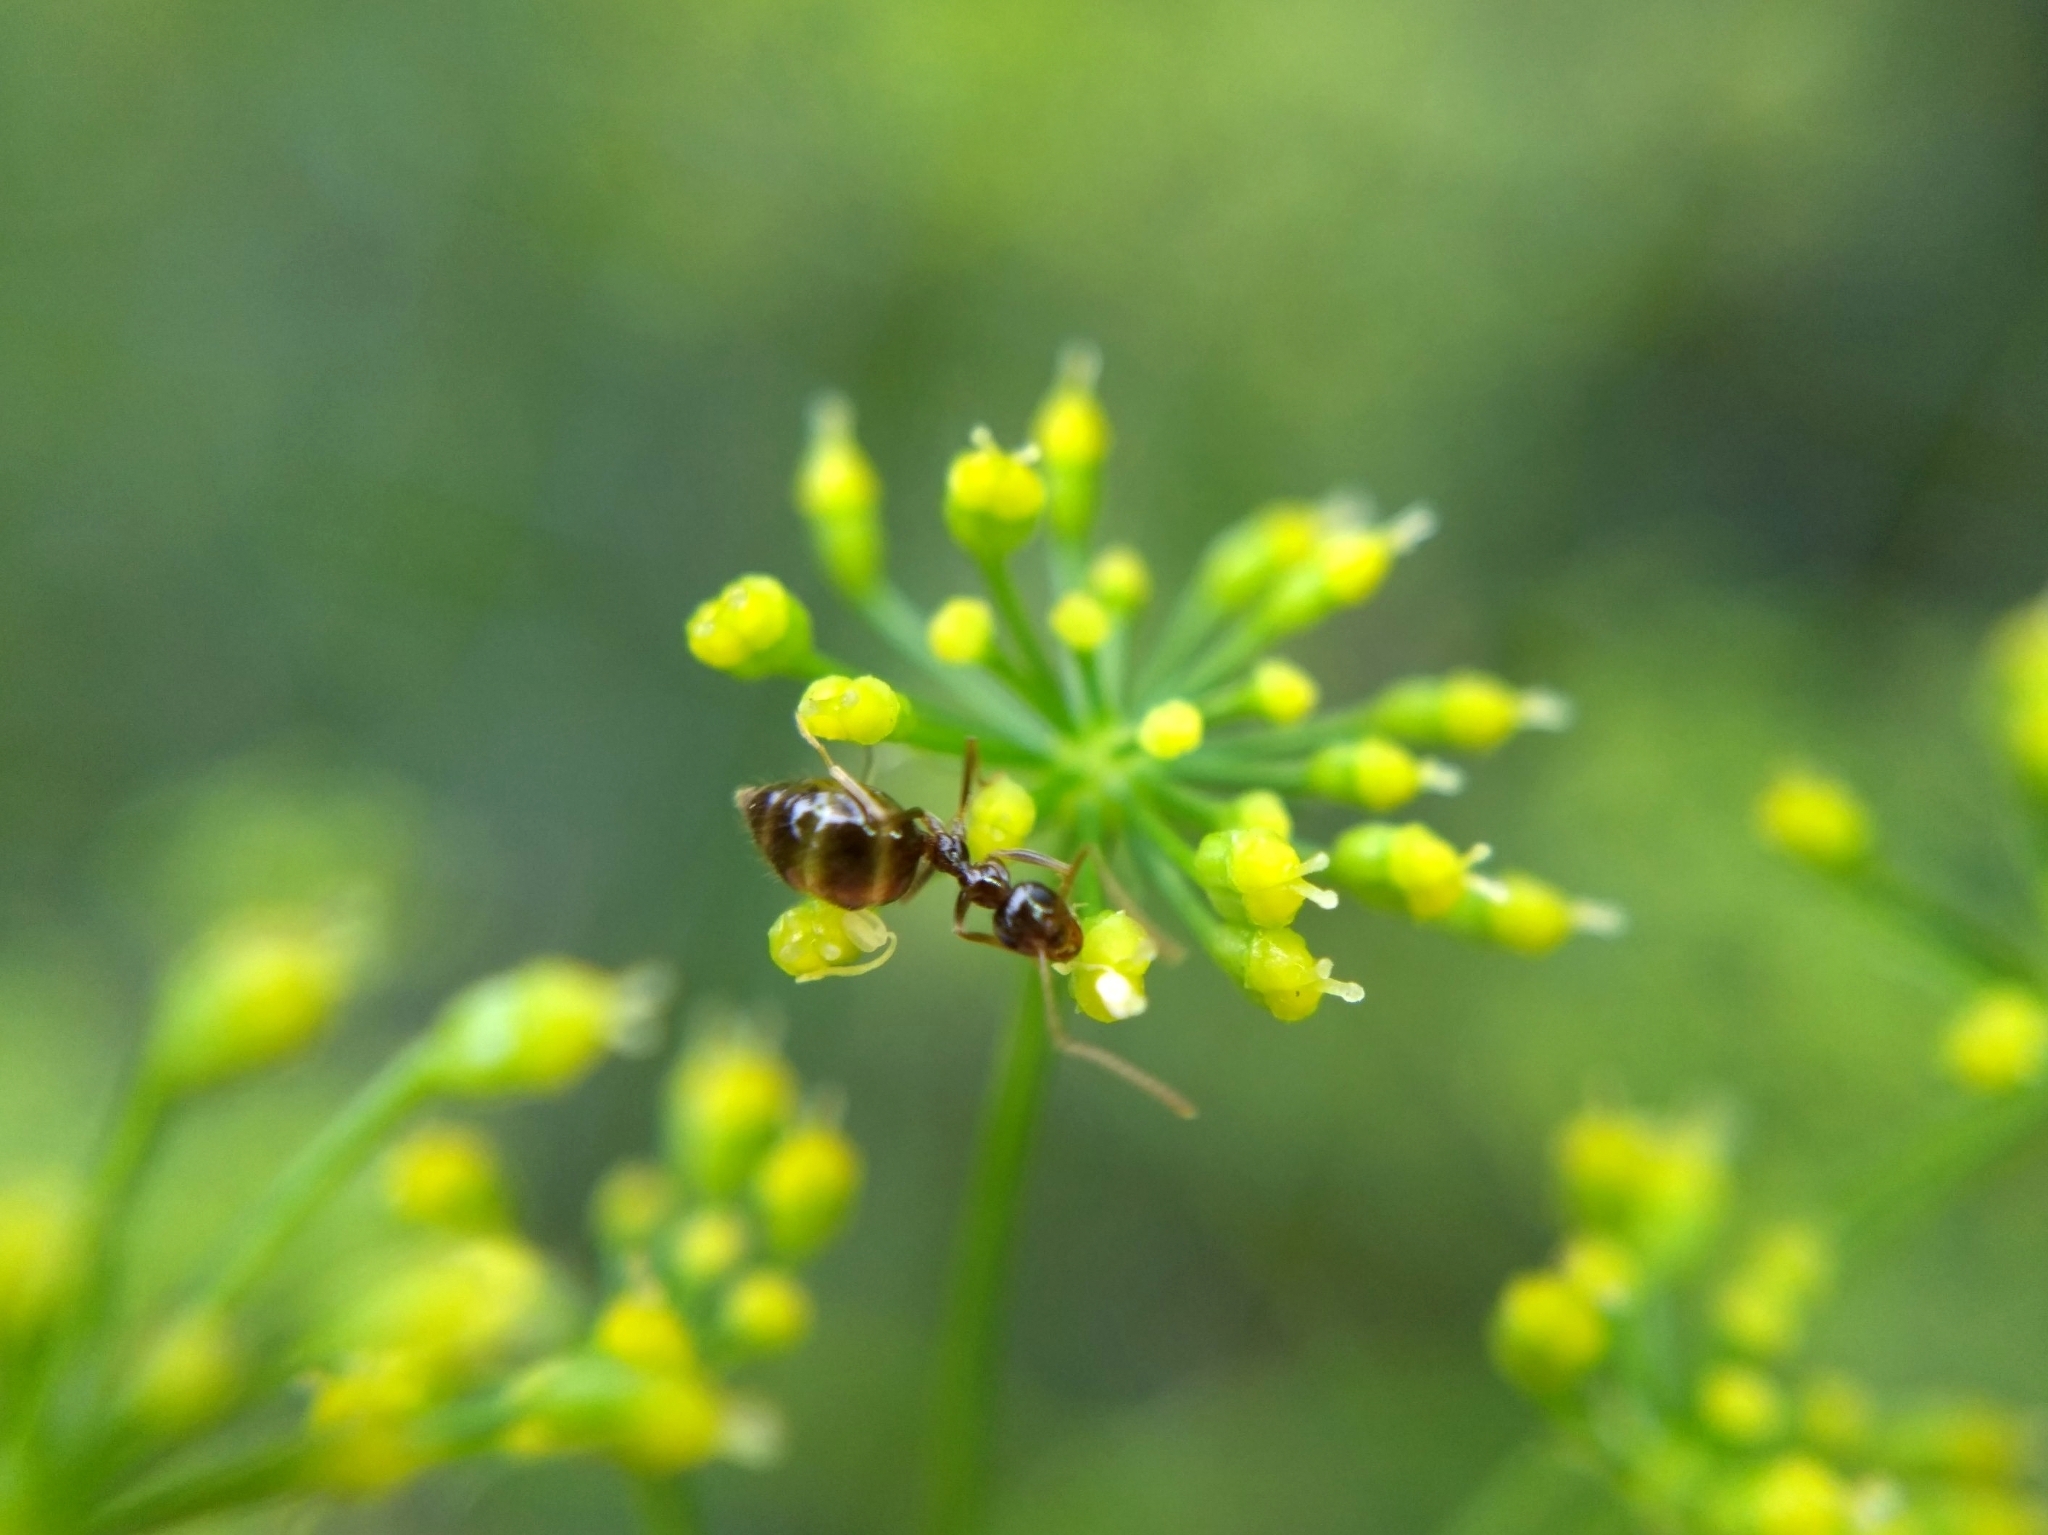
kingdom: Animalia
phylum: Arthropoda
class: Insecta
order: Hymenoptera
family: Formicidae
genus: Prenolepis
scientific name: Prenolepis imparis
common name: Small honey ant
